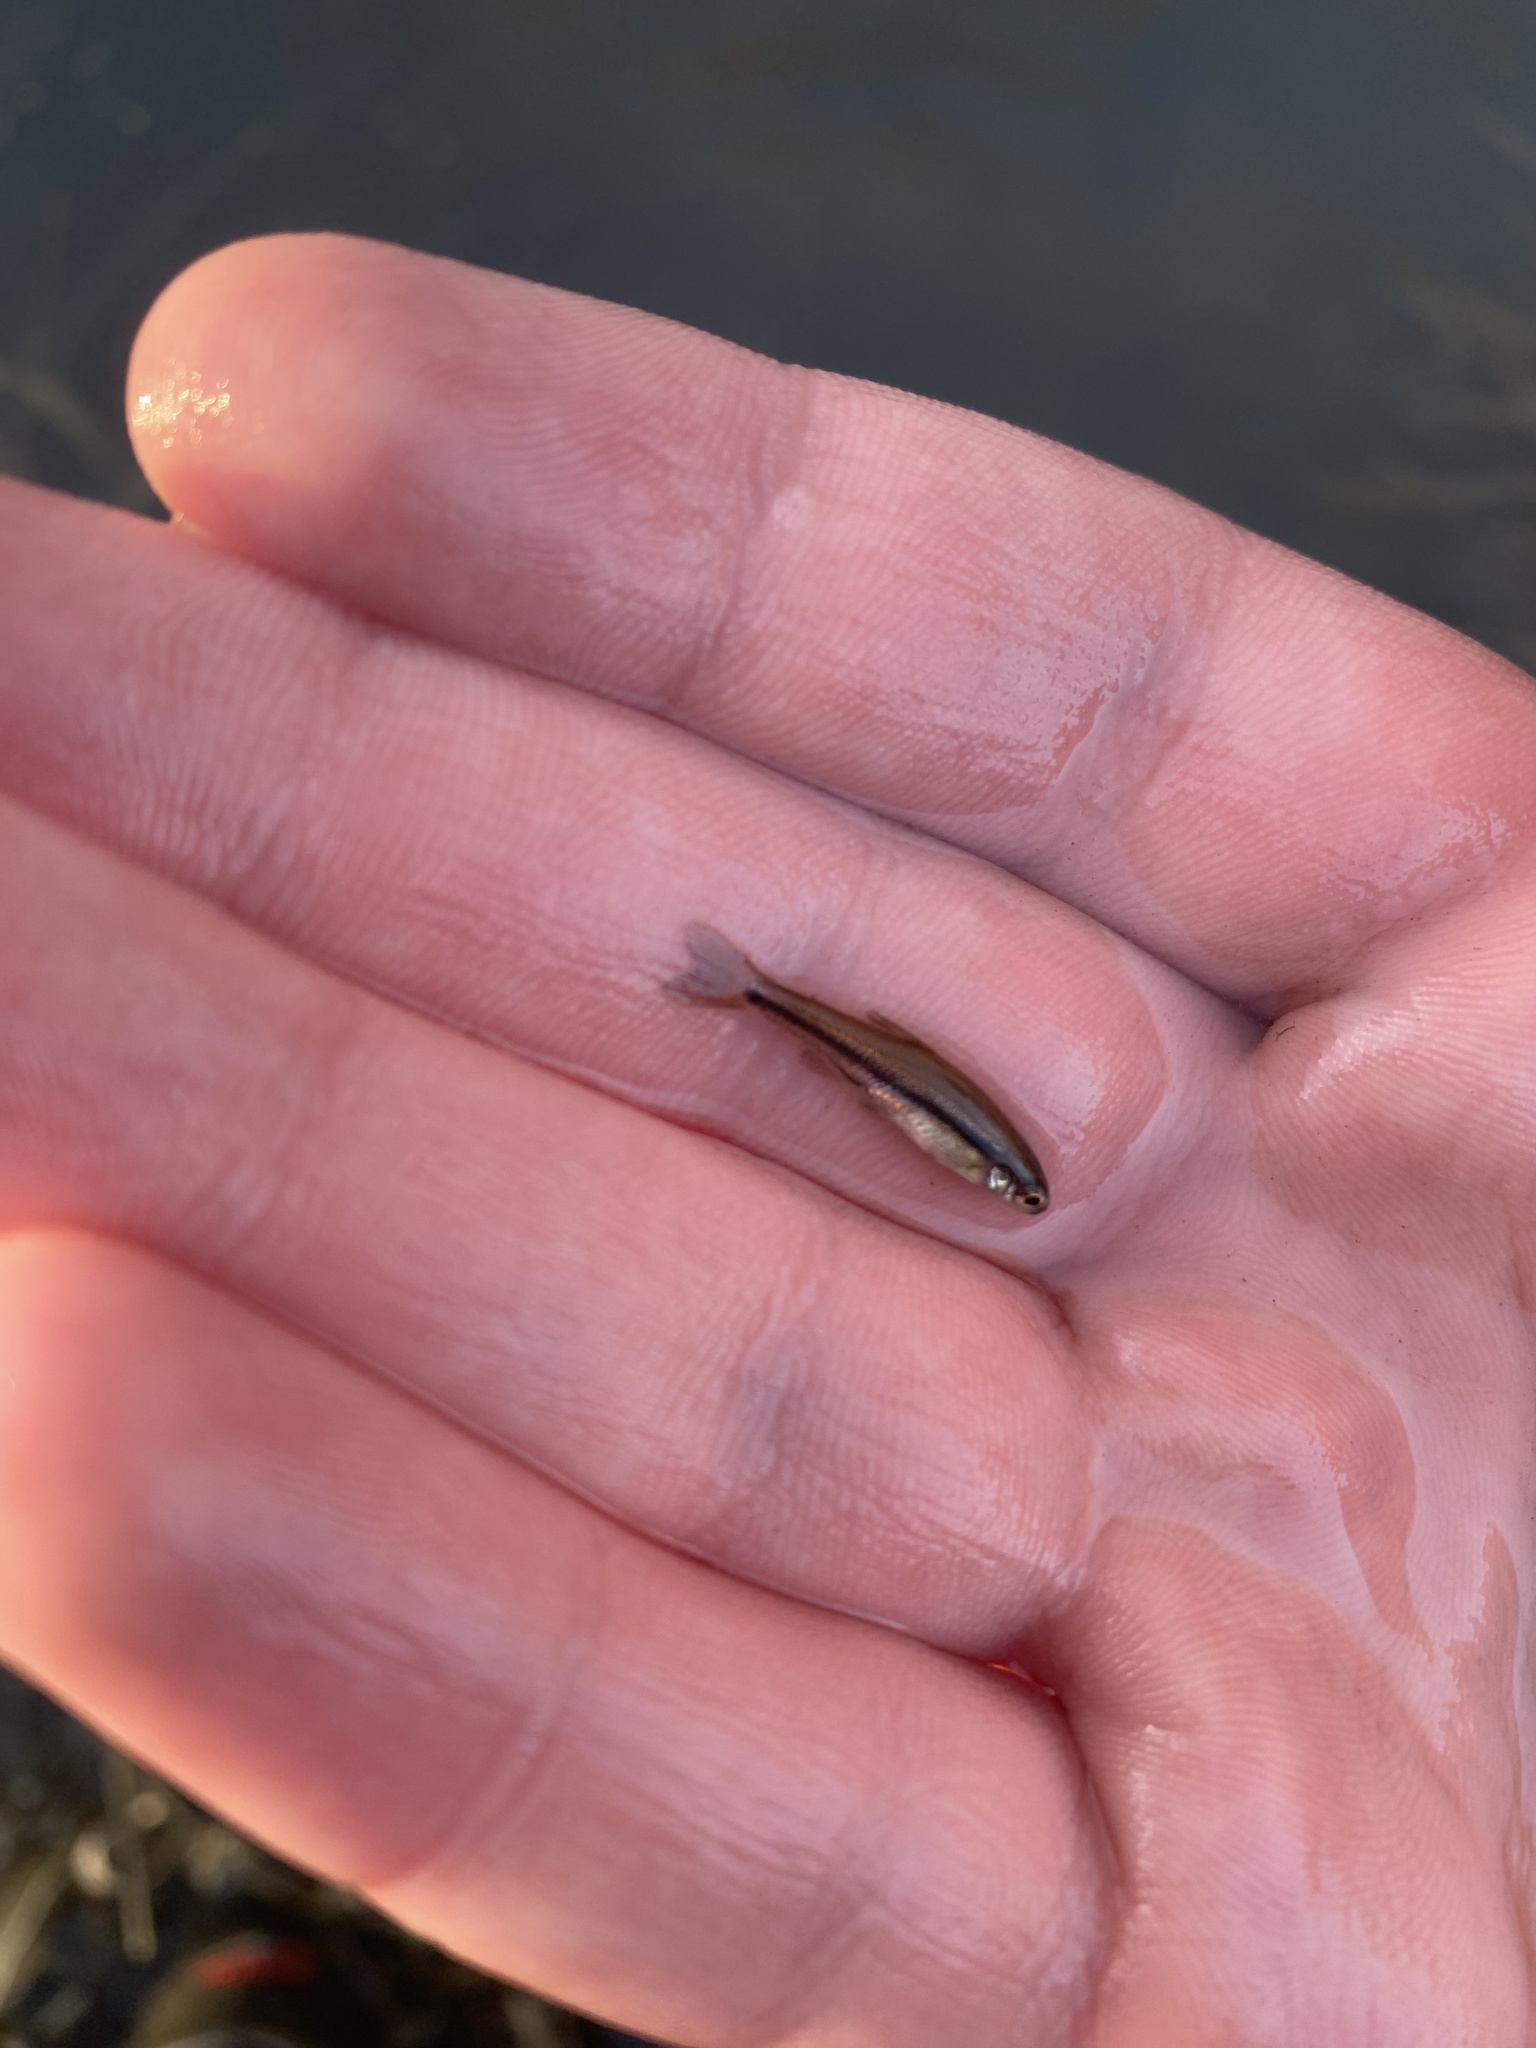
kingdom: Animalia
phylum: Chordata
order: Cypriniformes
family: Cyprinidae
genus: Chrosomus
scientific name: Chrosomus erythrogaster
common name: Southern redbelly dace
